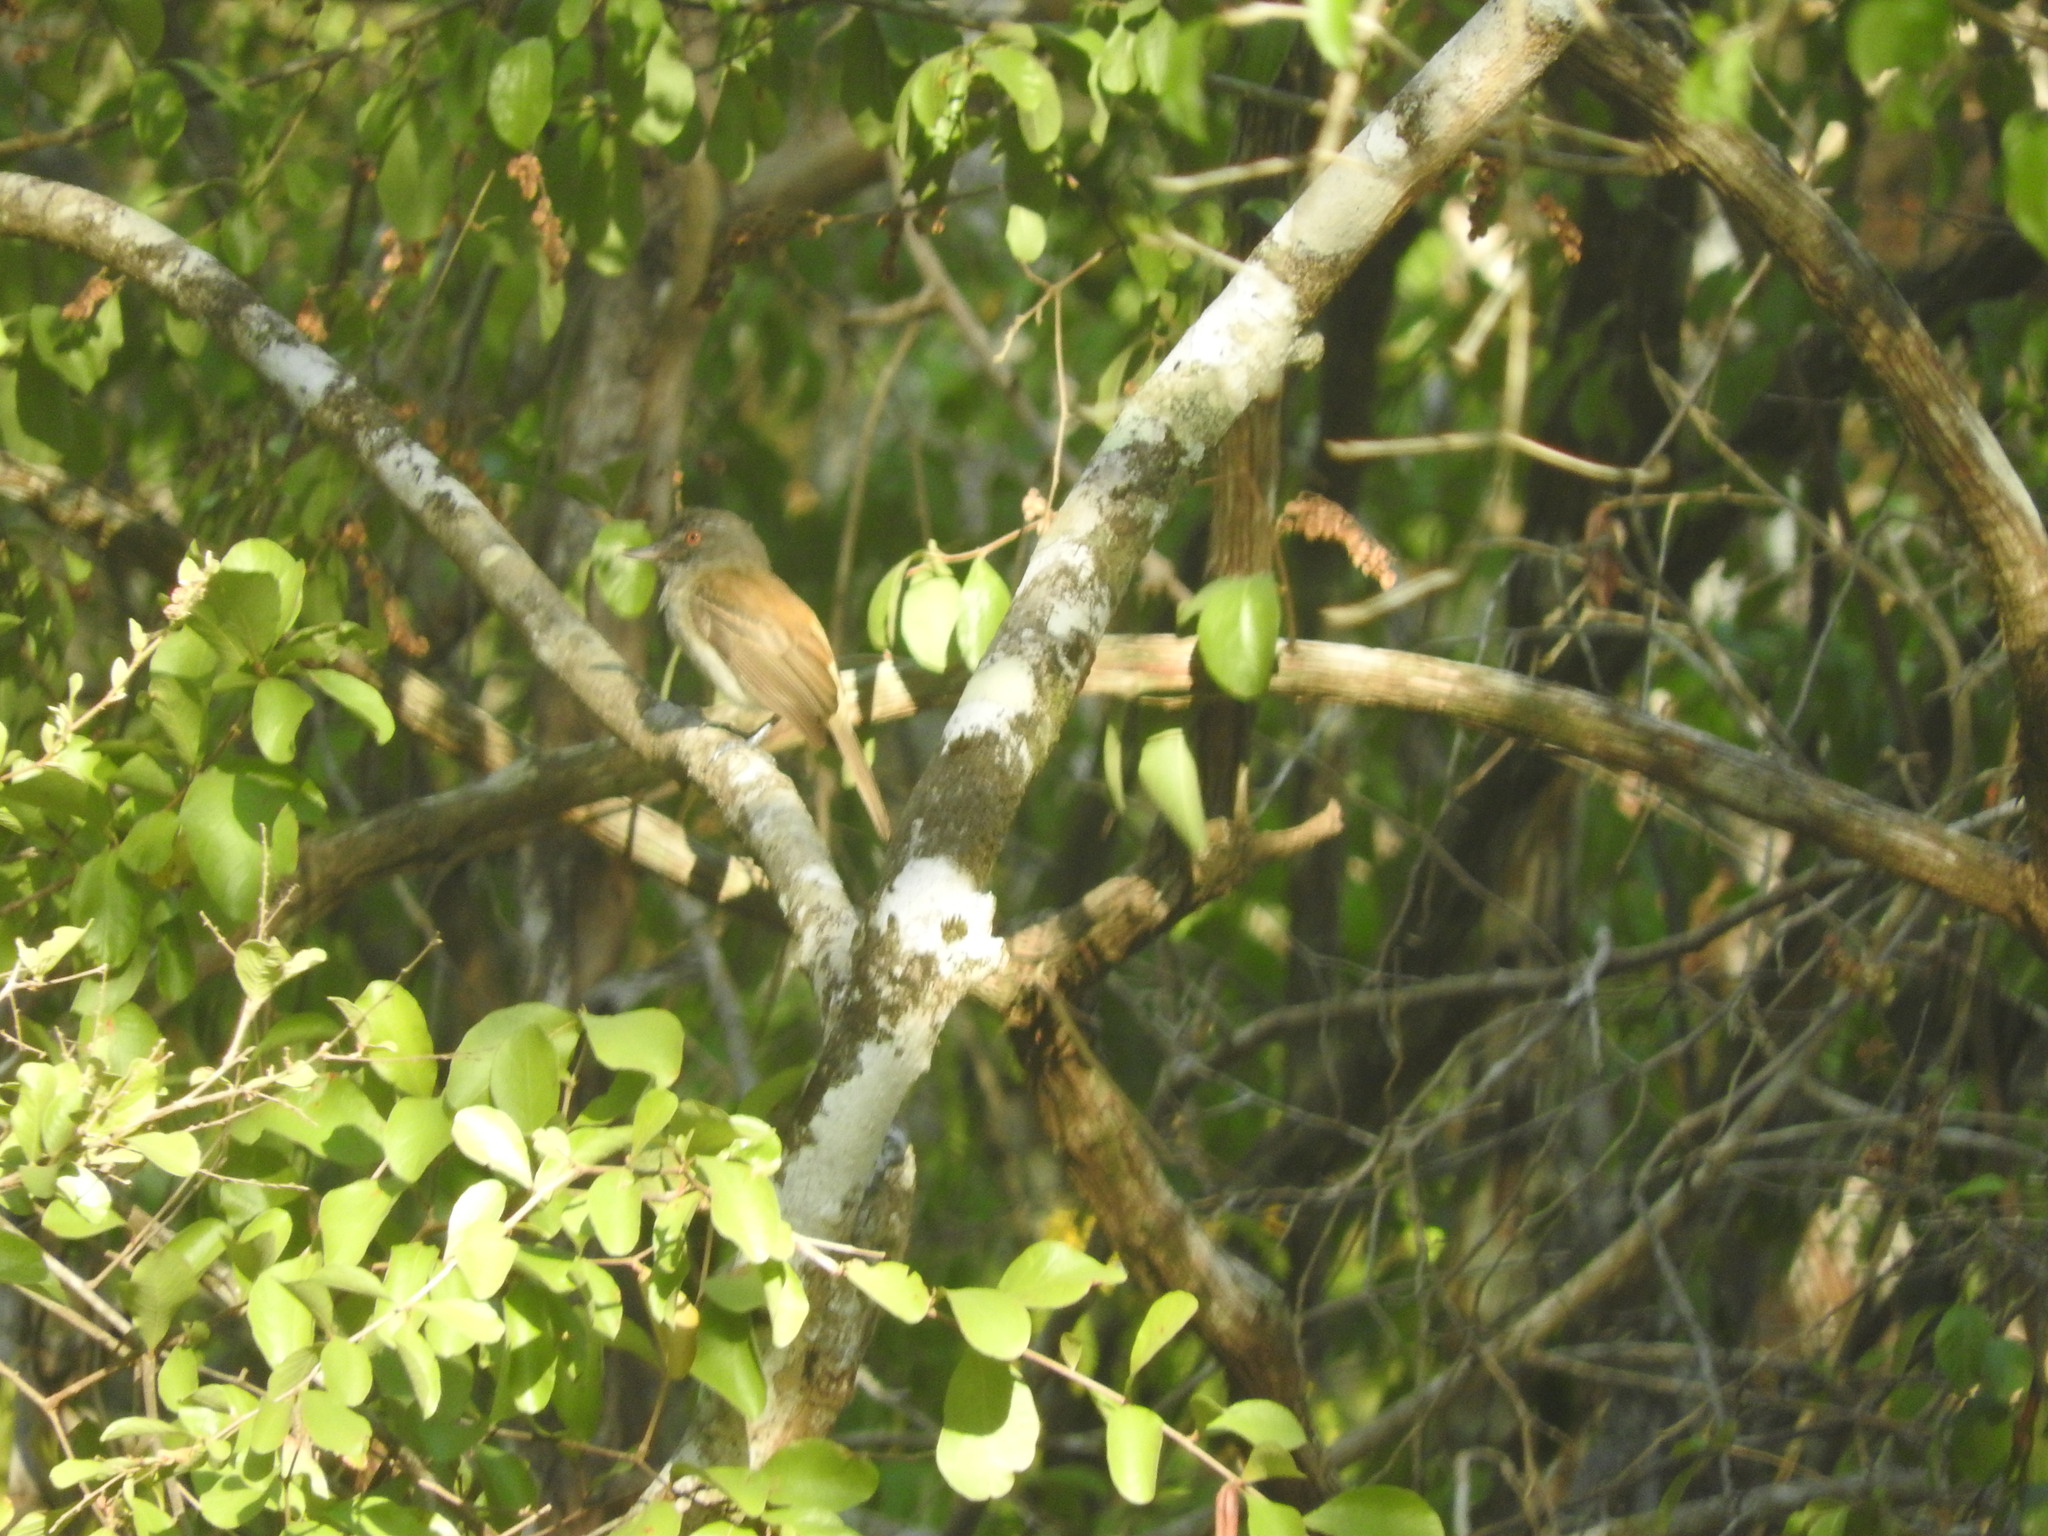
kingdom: Animalia
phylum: Chordata
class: Aves
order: Passeriformes
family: Tyrannidae
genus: Attila
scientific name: Attila spadiceus
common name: Bright-rumped attila
